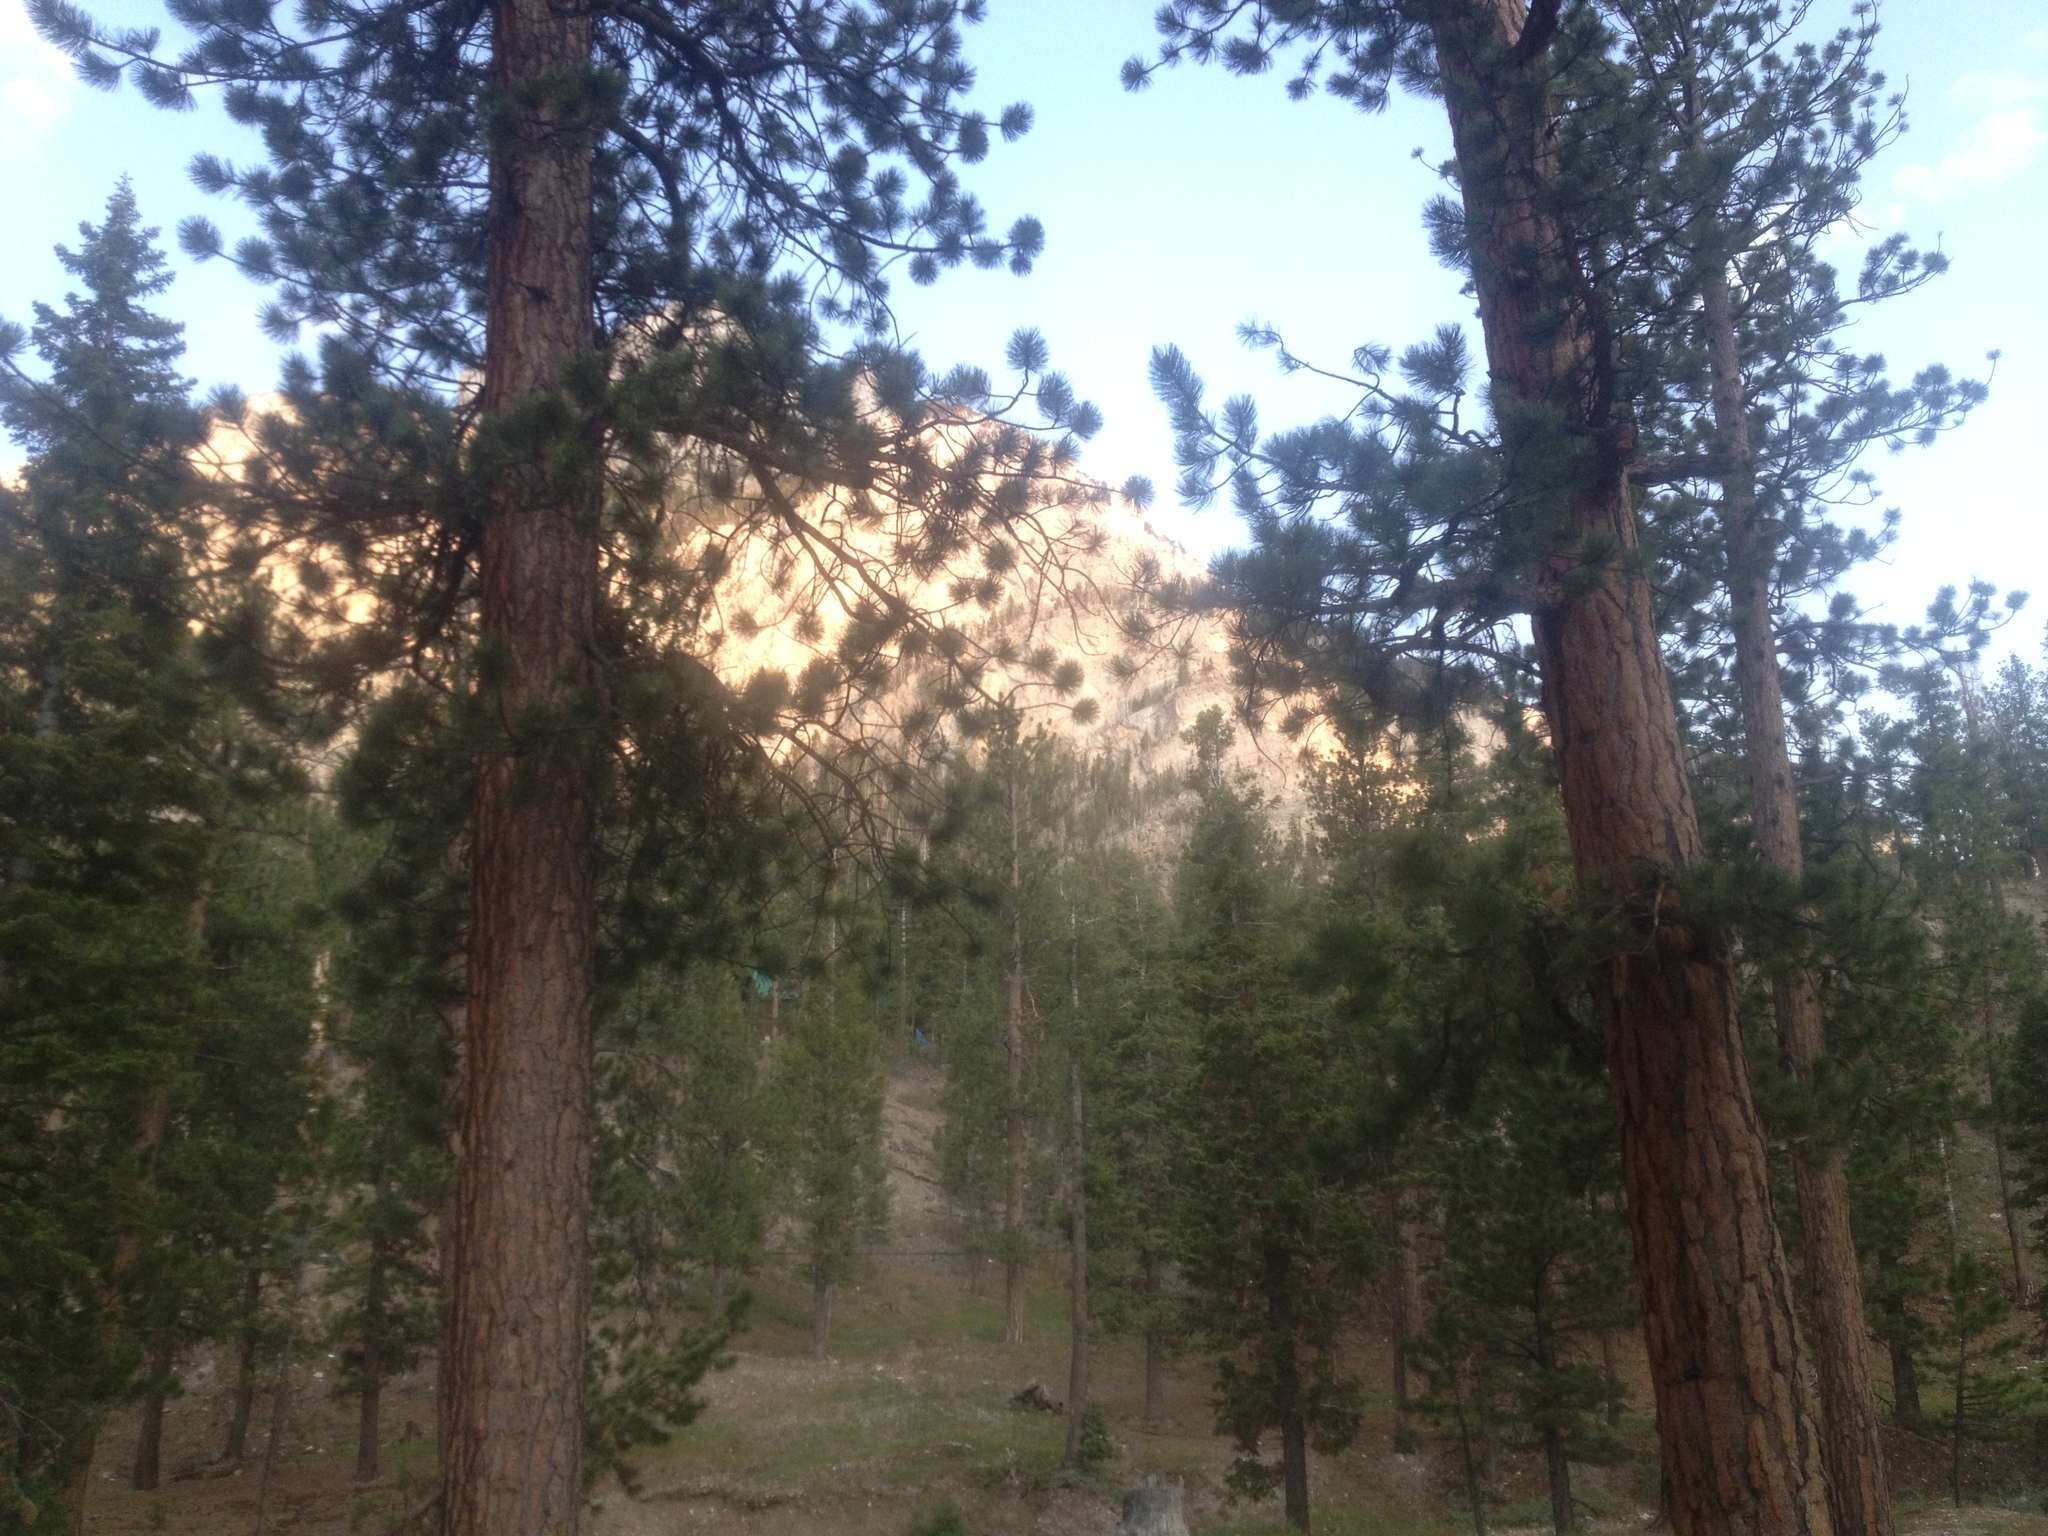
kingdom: Plantae
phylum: Tracheophyta
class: Pinopsida
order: Pinales
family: Pinaceae
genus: Pinus
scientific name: Pinus ponderosa
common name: Western yellow-pine
